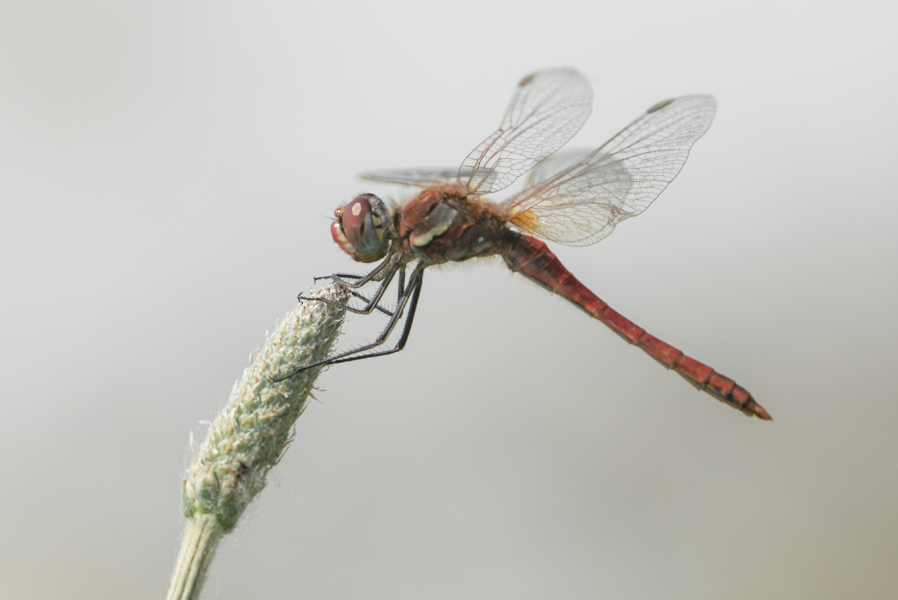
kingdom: Animalia
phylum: Arthropoda
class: Insecta
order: Odonata
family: Libellulidae
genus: Sympetrum
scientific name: Sympetrum fonscolombii
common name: Red-veined darter
